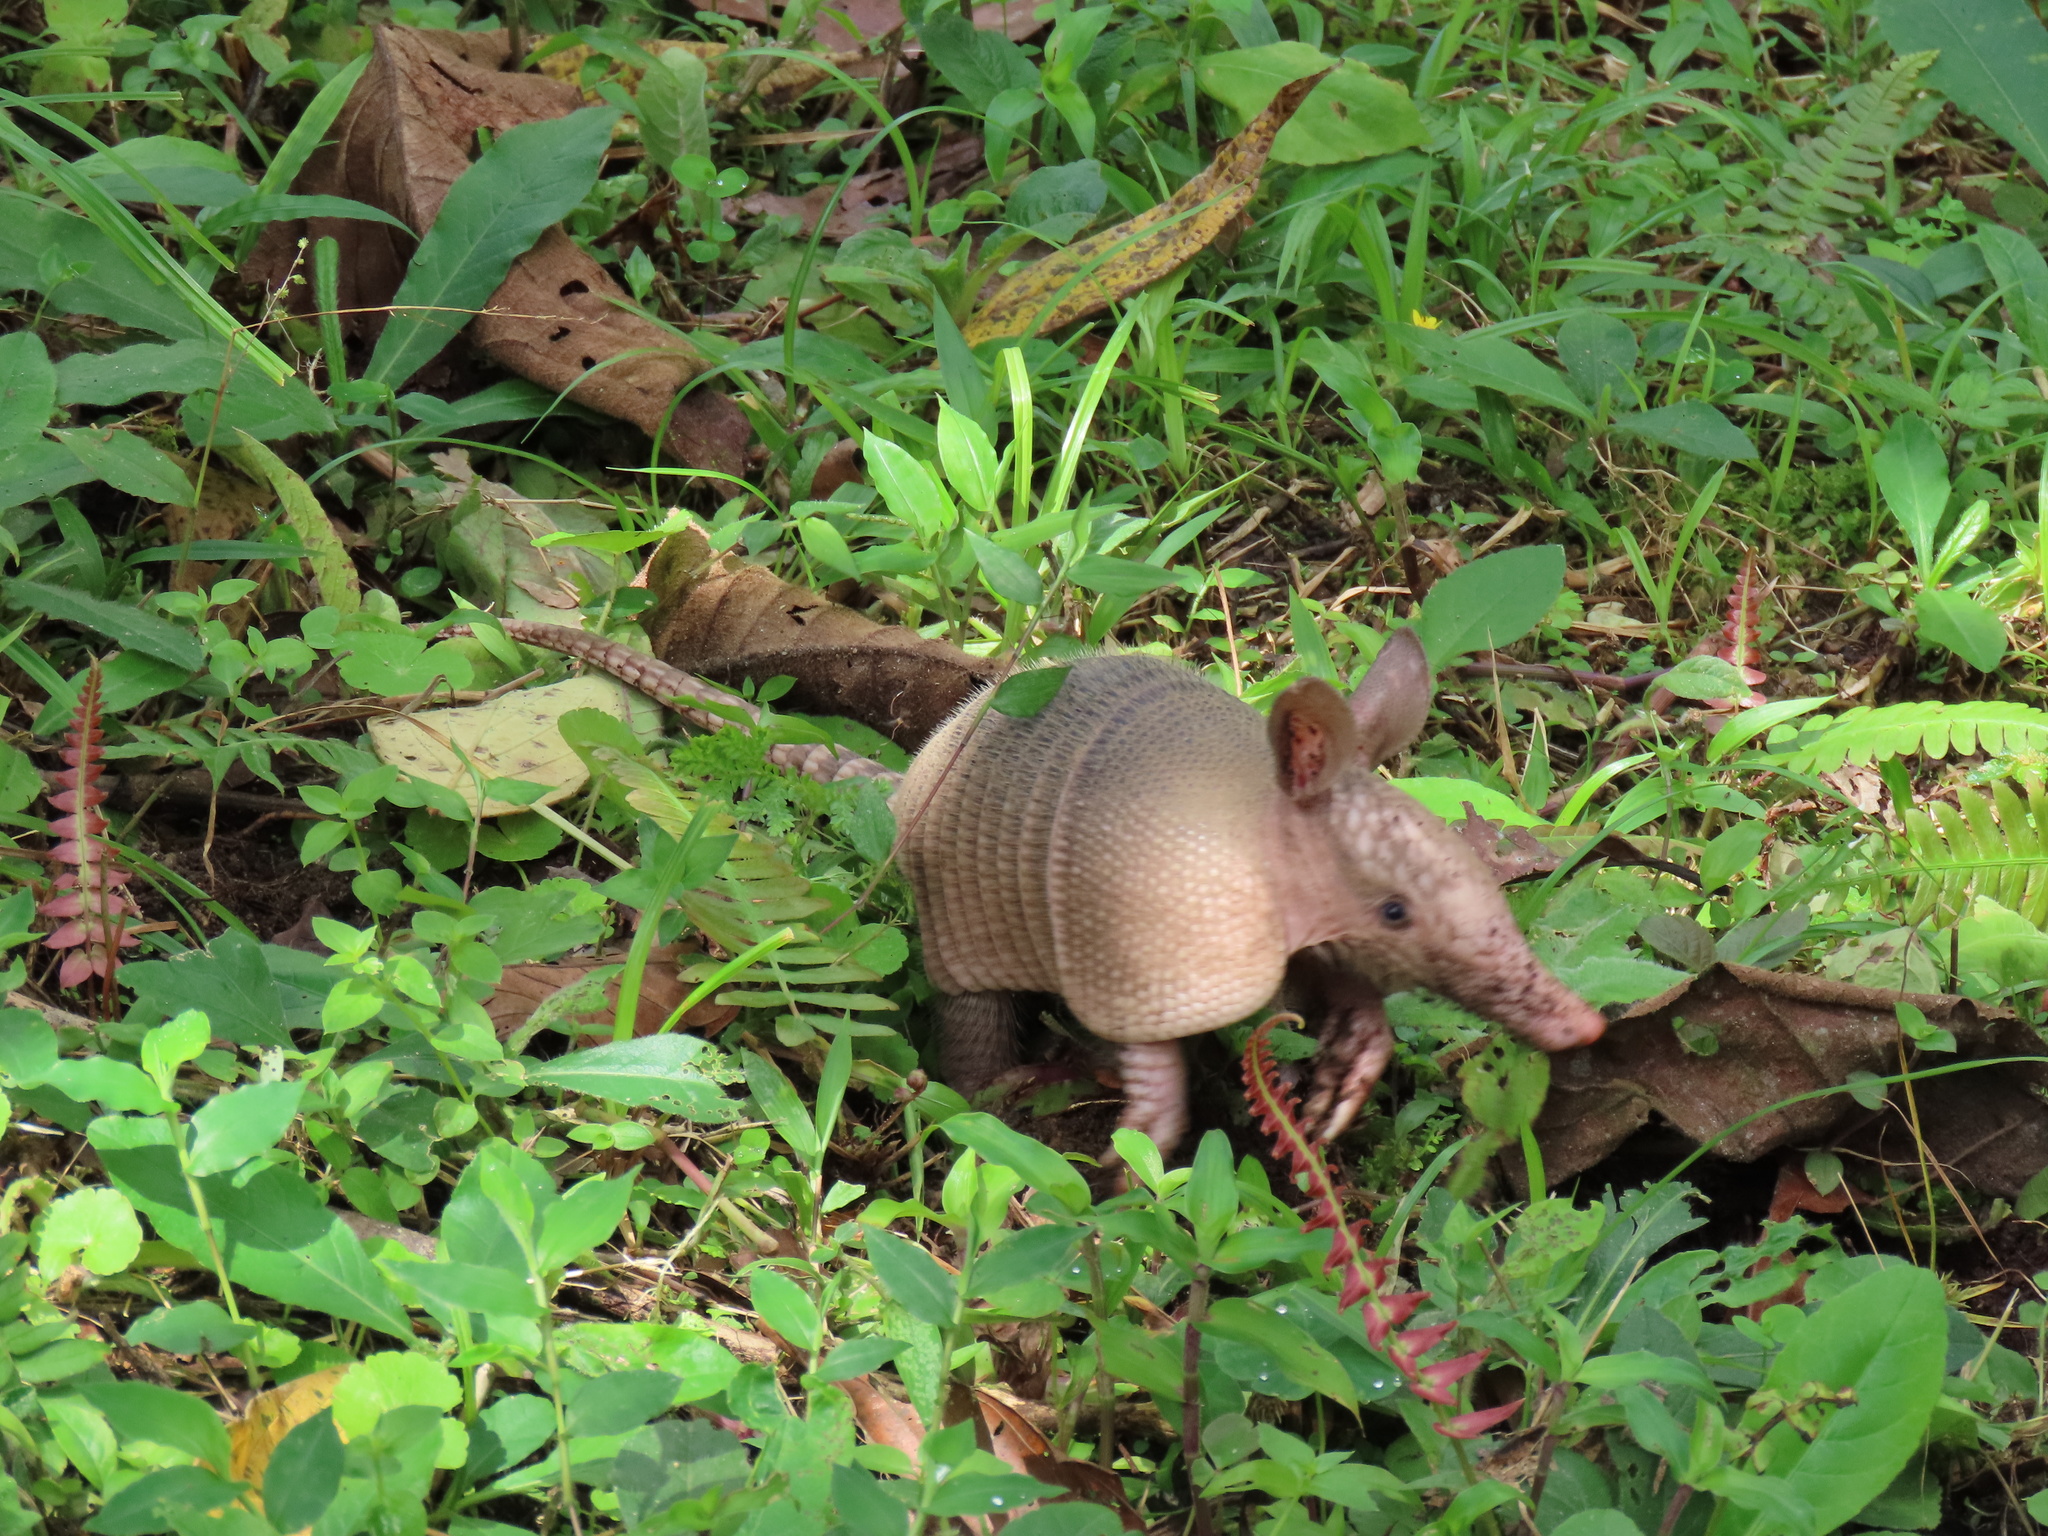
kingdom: Animalia
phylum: Chordata
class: Mammalia
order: Cingulata
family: Dasypodidae
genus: Dasypus
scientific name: Dasypus novemcinctus
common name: Nine-banded armadillo
